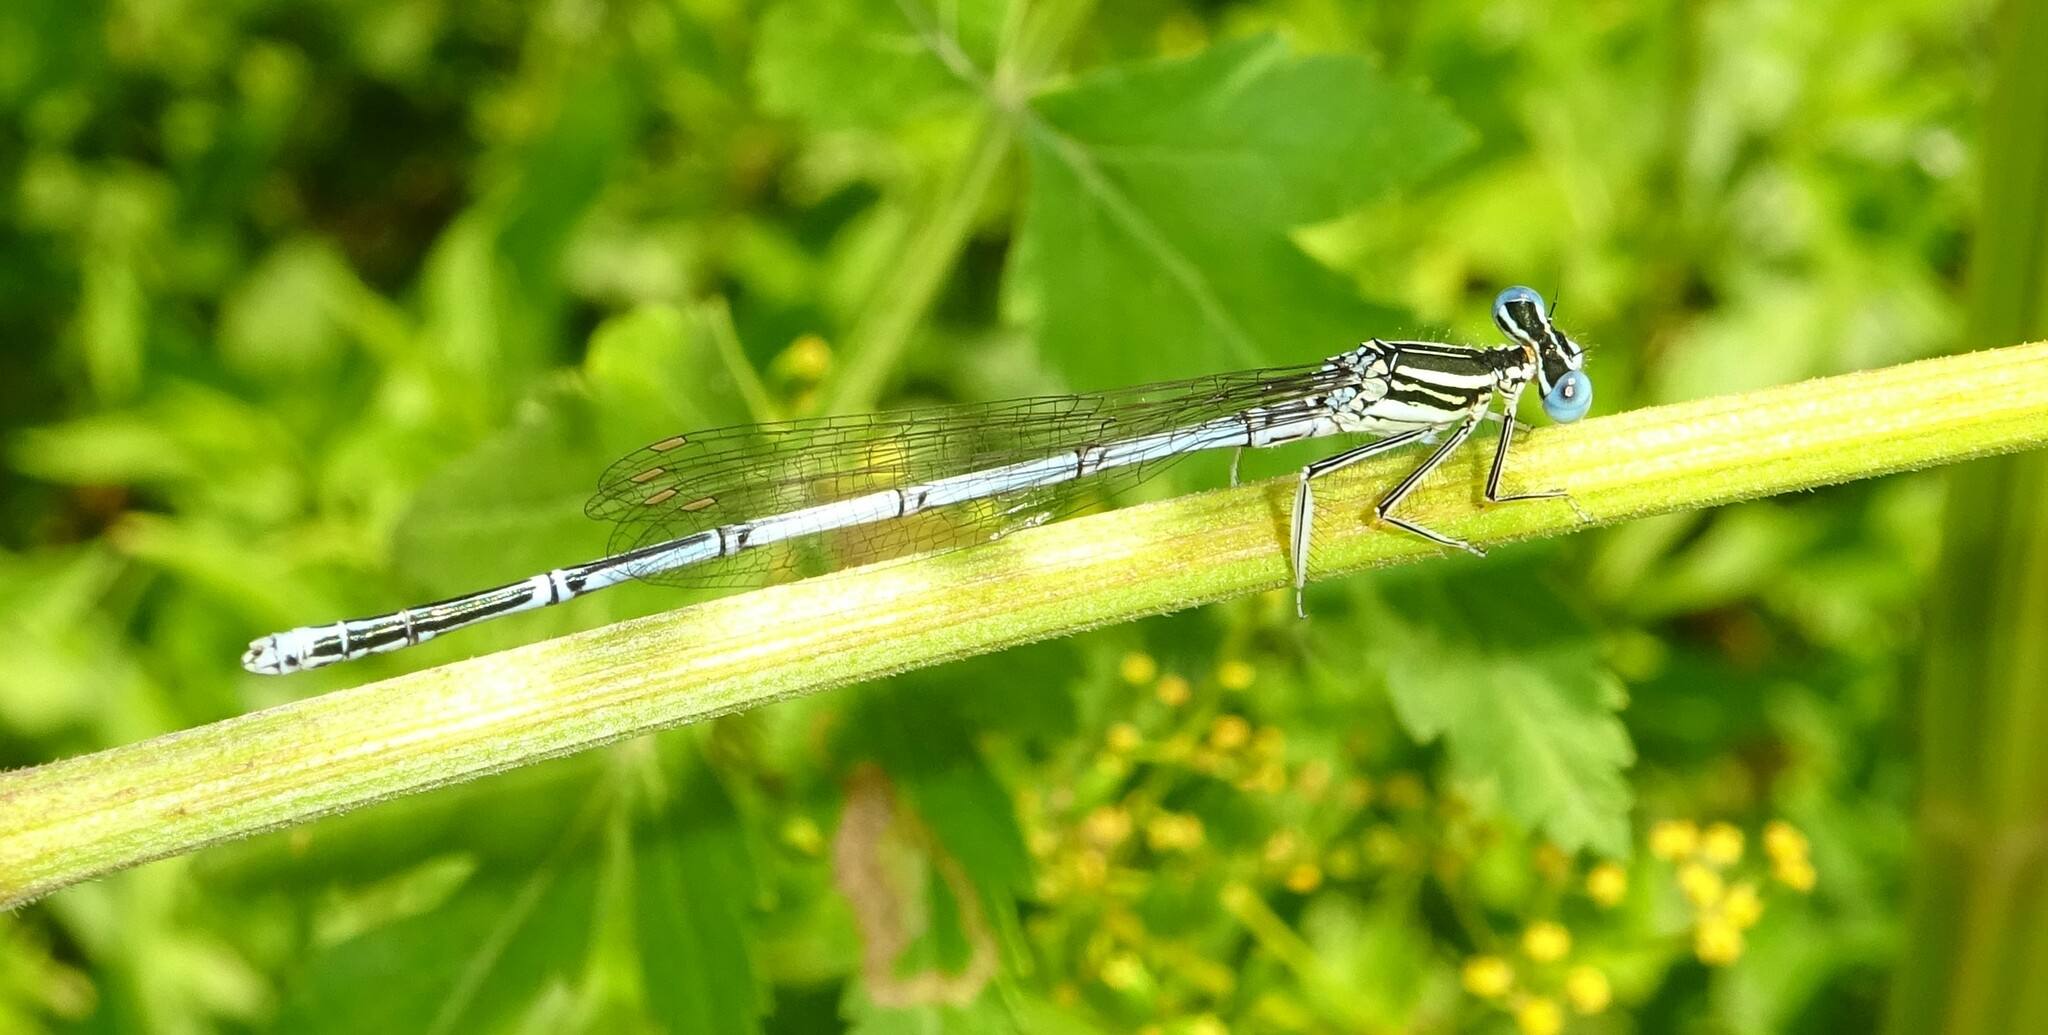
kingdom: Animalia
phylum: Arthropoda
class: Insecta
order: Odonata
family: Platycnemididae
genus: Platycnemis
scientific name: Platycnemis pennipes
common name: White-legged damselfly
